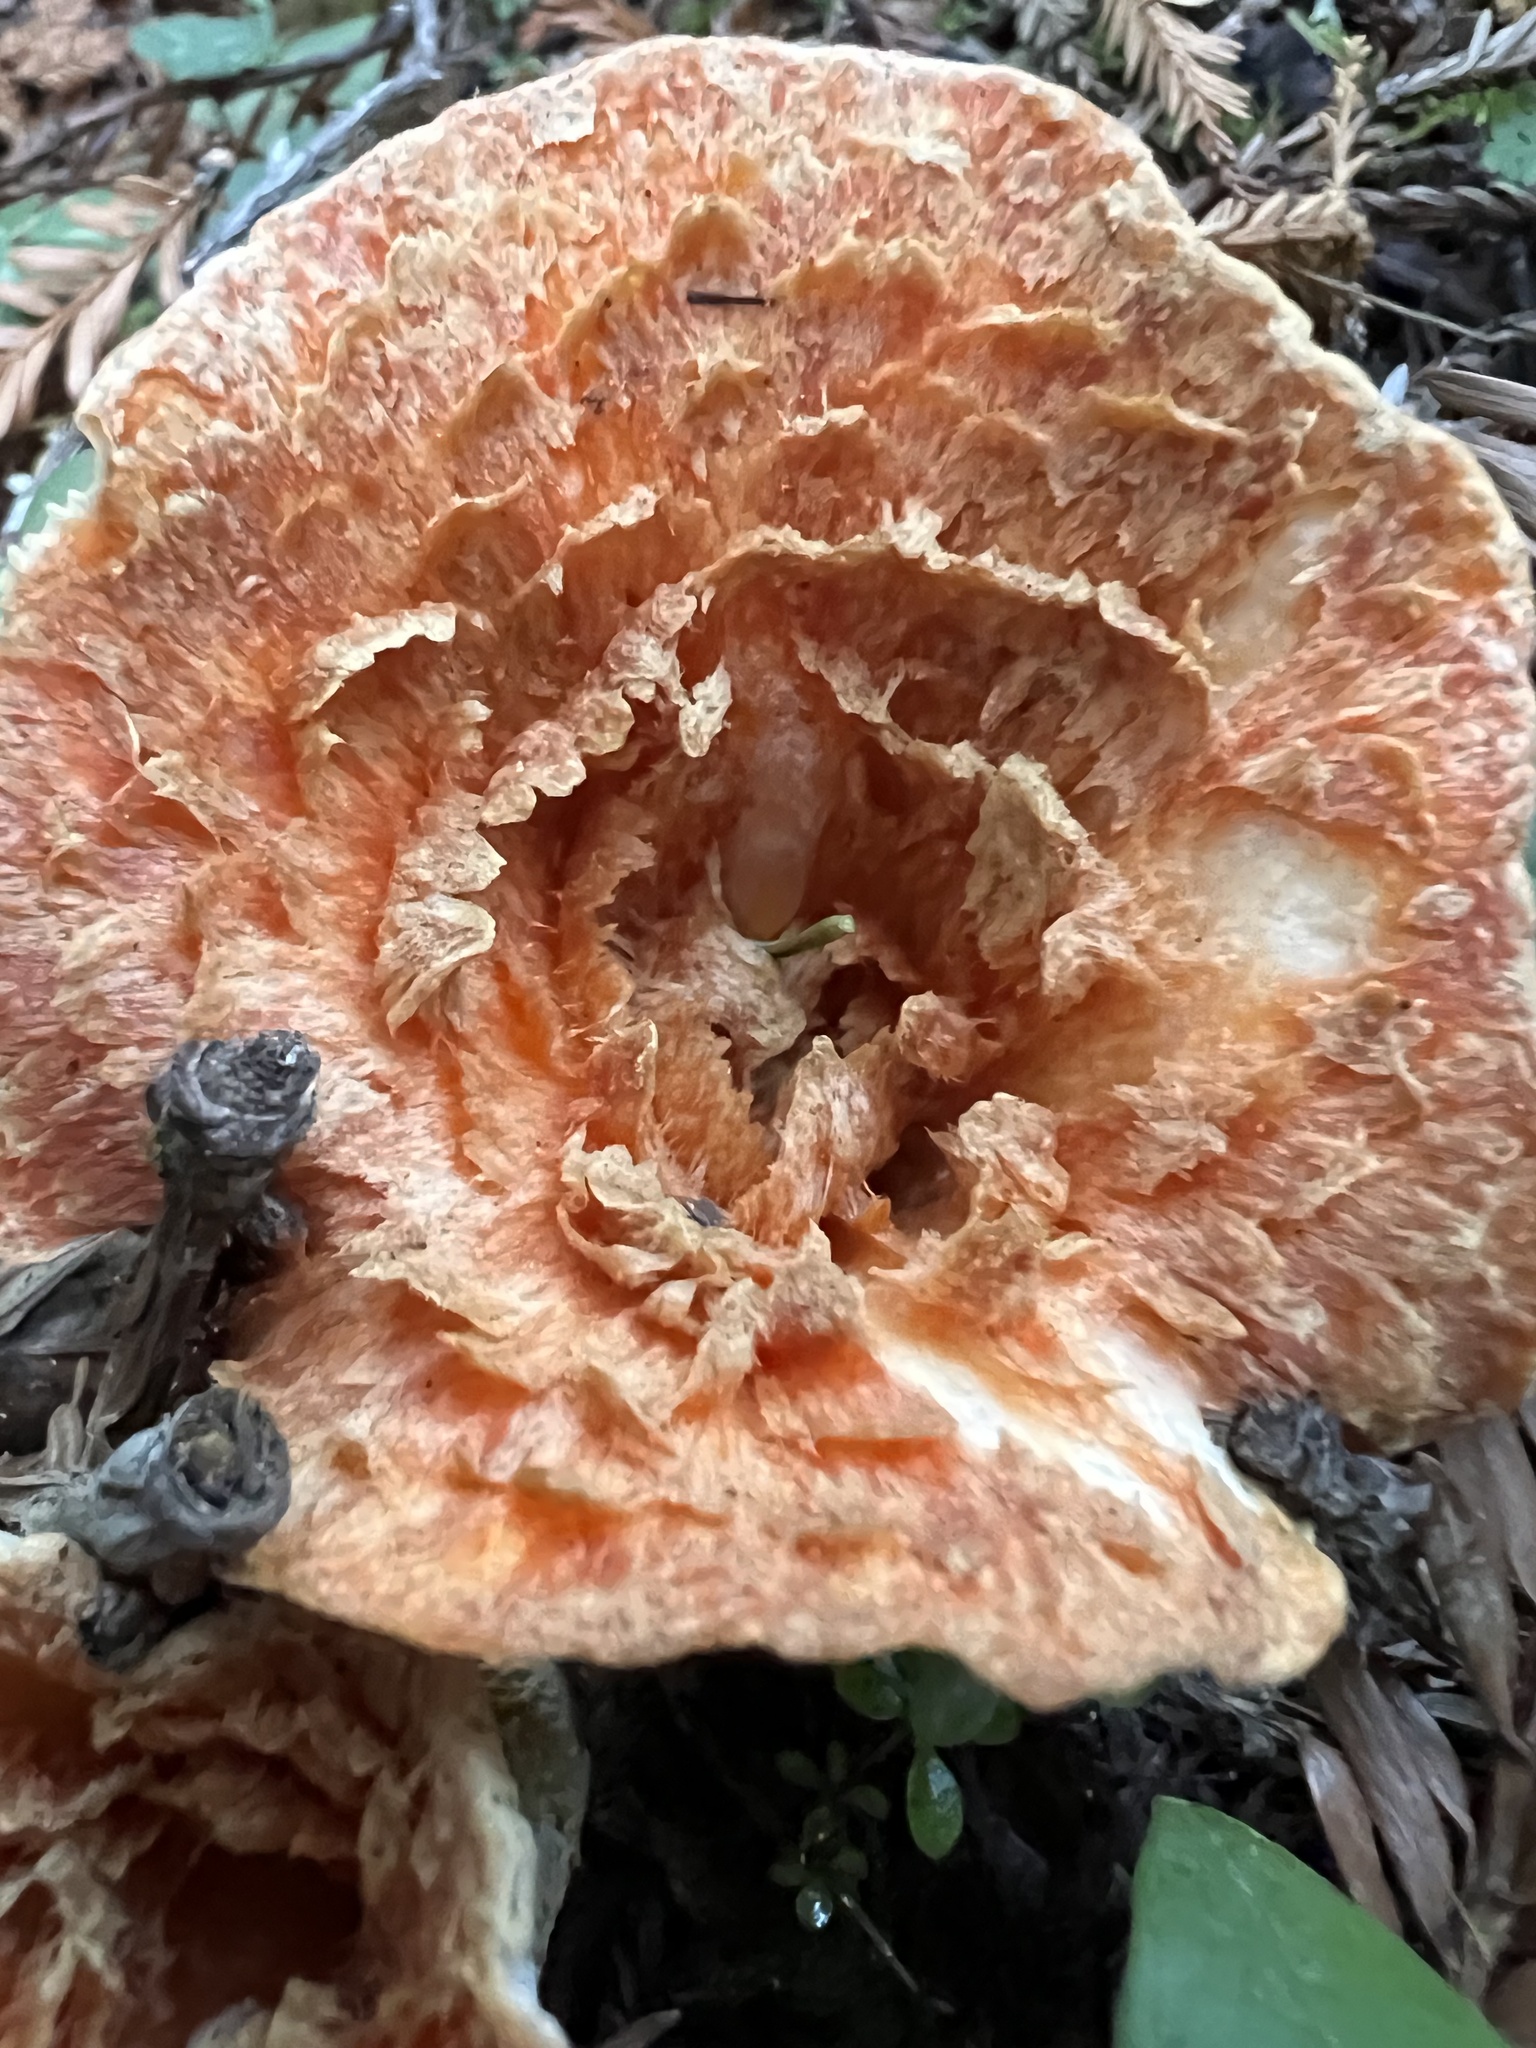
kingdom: Fungi
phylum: Basidiomycota
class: Agaricomycetes
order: Gomphales
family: Gomphaceae
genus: Turbinellus
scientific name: Turbinellus floccosus
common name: Scaly chanterelle
